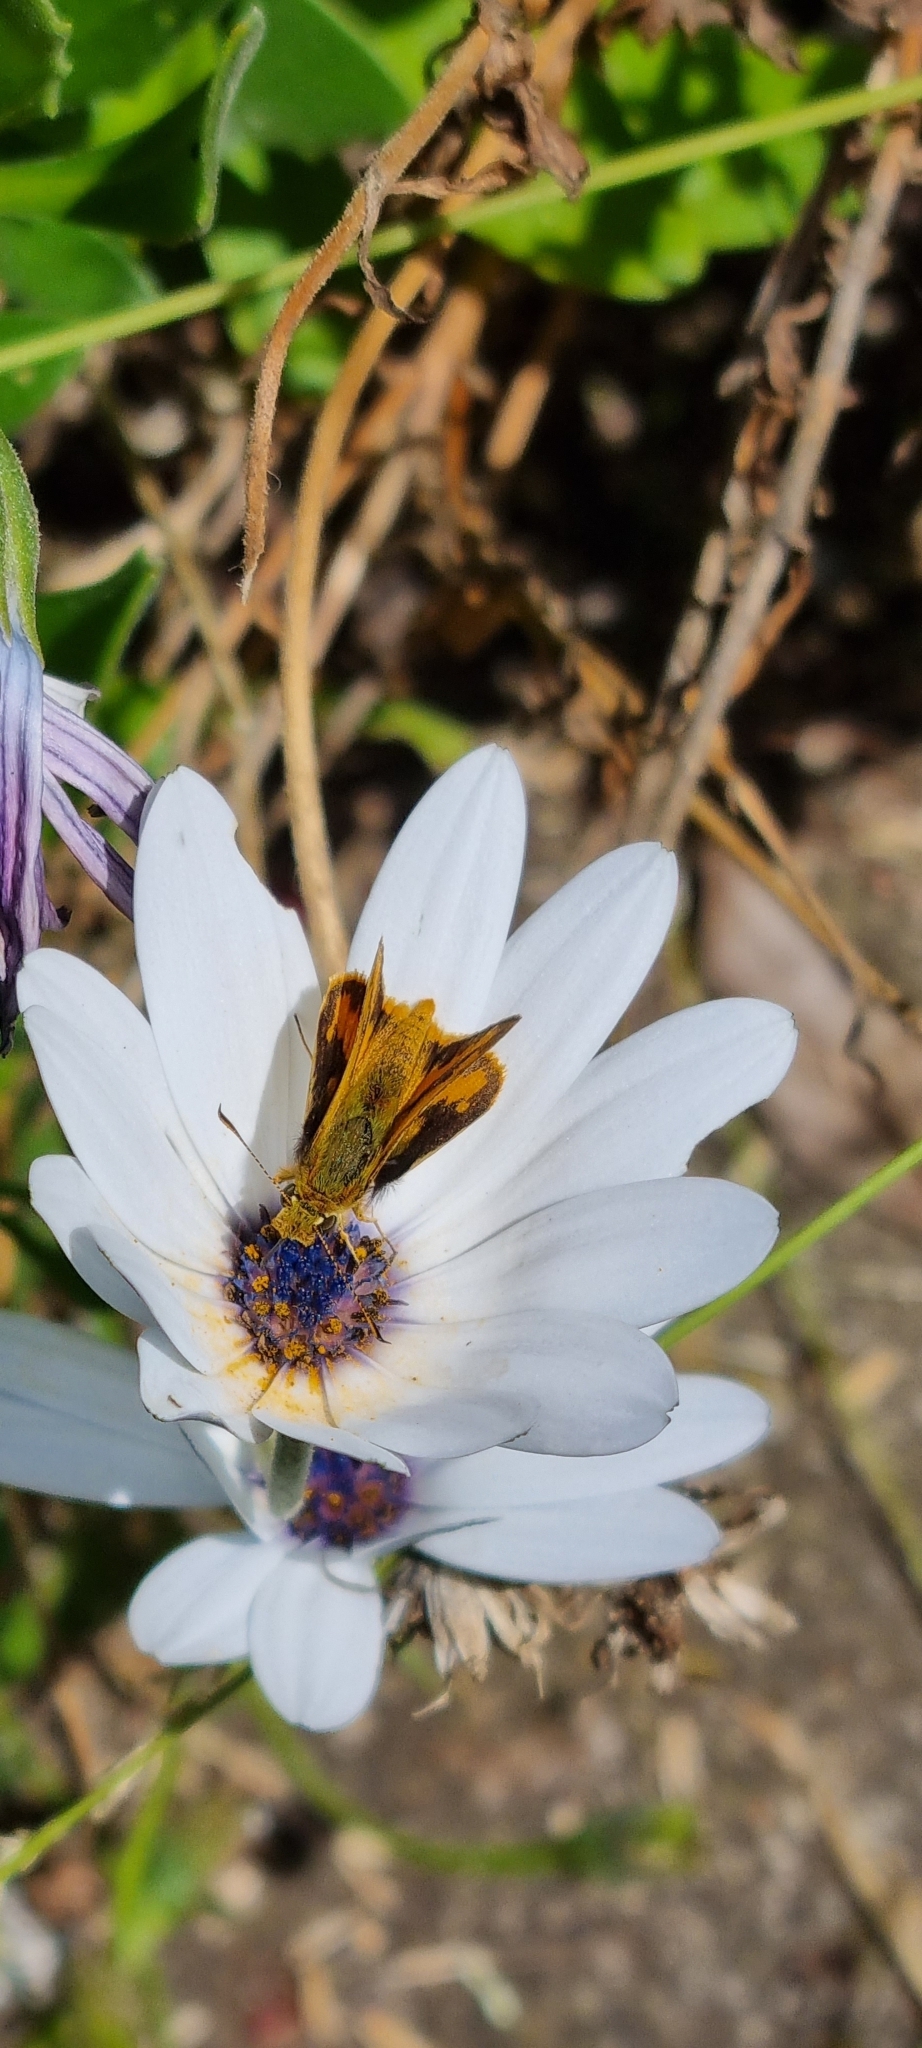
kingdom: Animalia
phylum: Arthropoda
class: Insecta
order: Lepidoptera
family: Hesperiidae
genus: Ocybadistes
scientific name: Ocybadistes walkeri
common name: Yellow-banded dart
